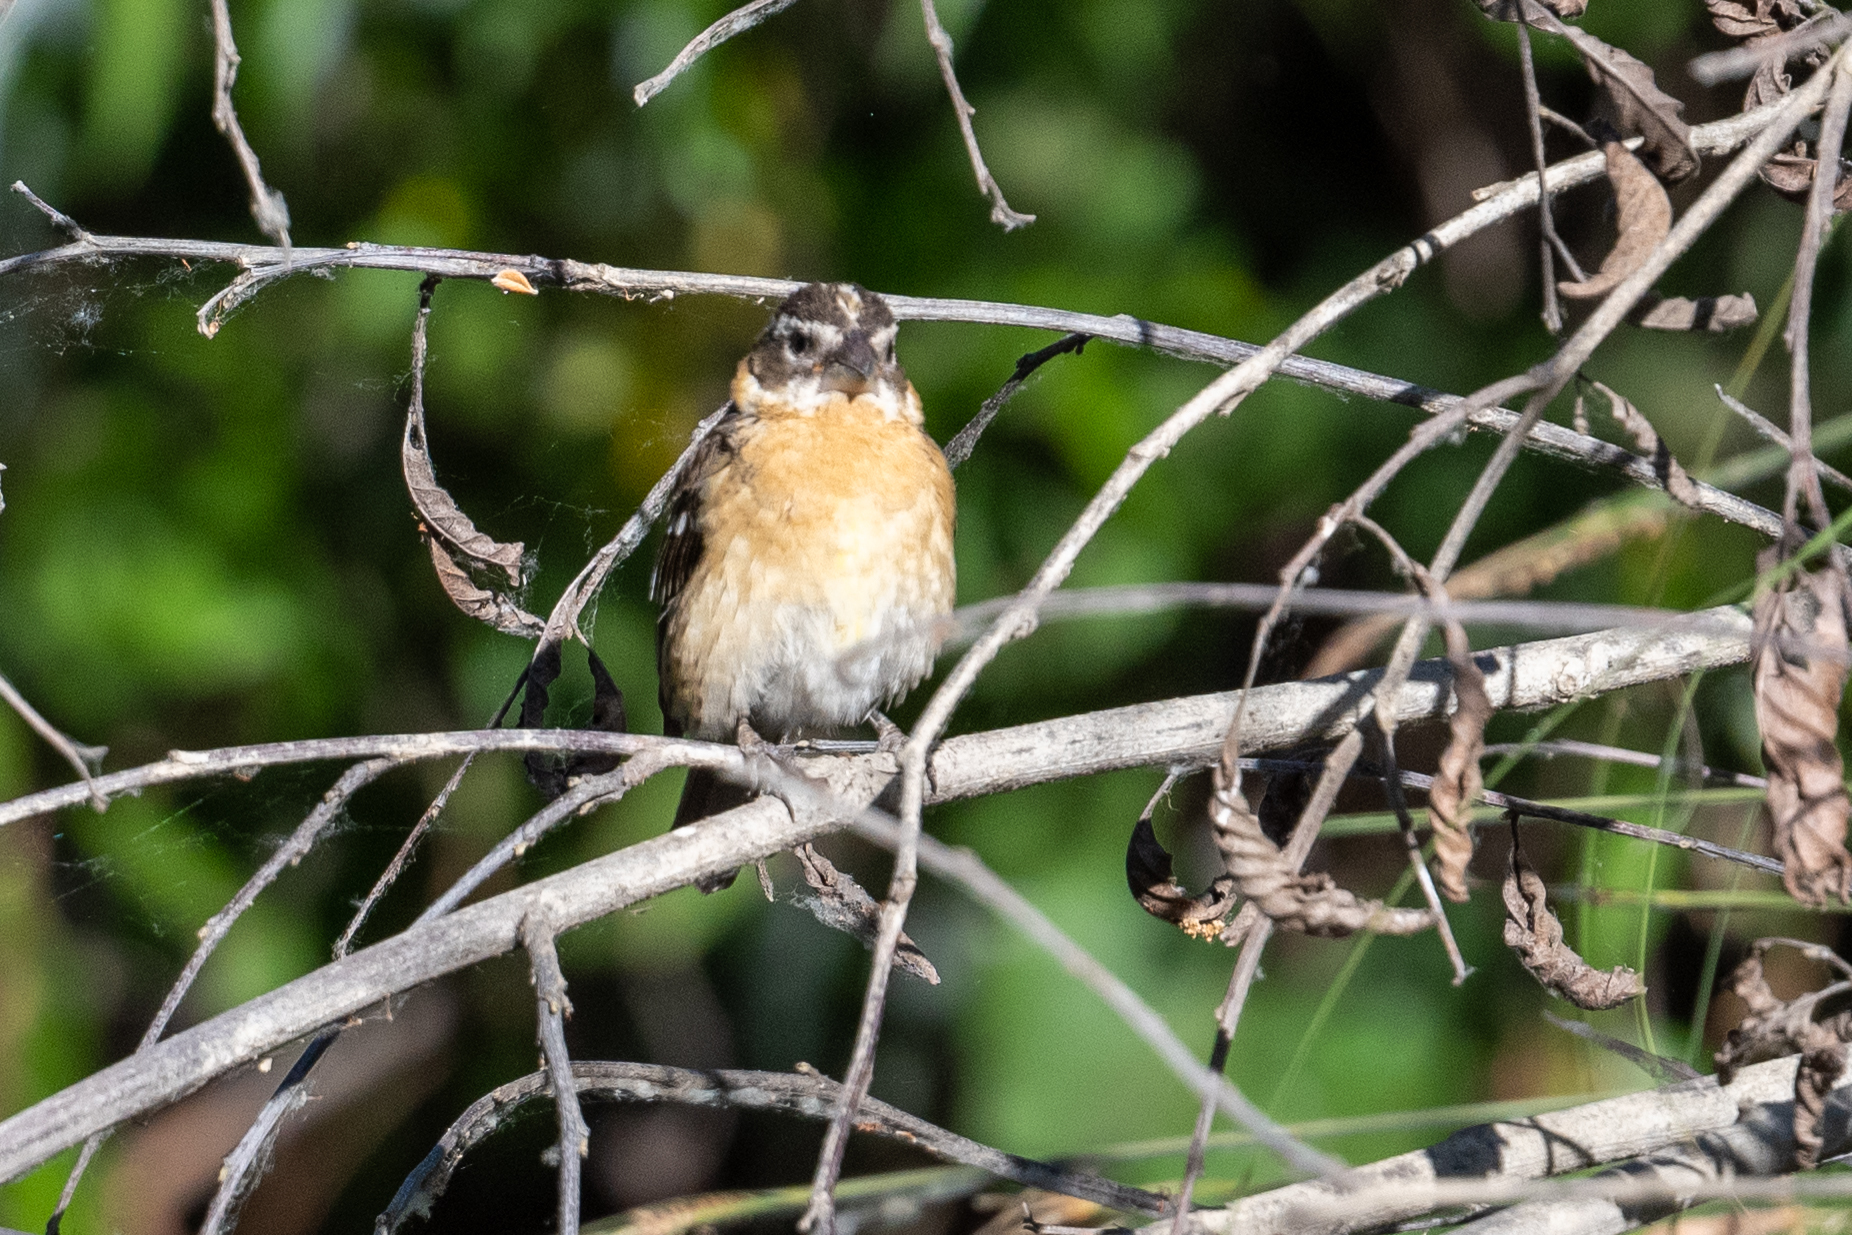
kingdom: Animalia
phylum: Chordata
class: Aves
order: Passeriformes
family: Cardinalidae
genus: Pheucticus
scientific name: Pheucticus melanocephalus
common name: Black-headed grosbeak
